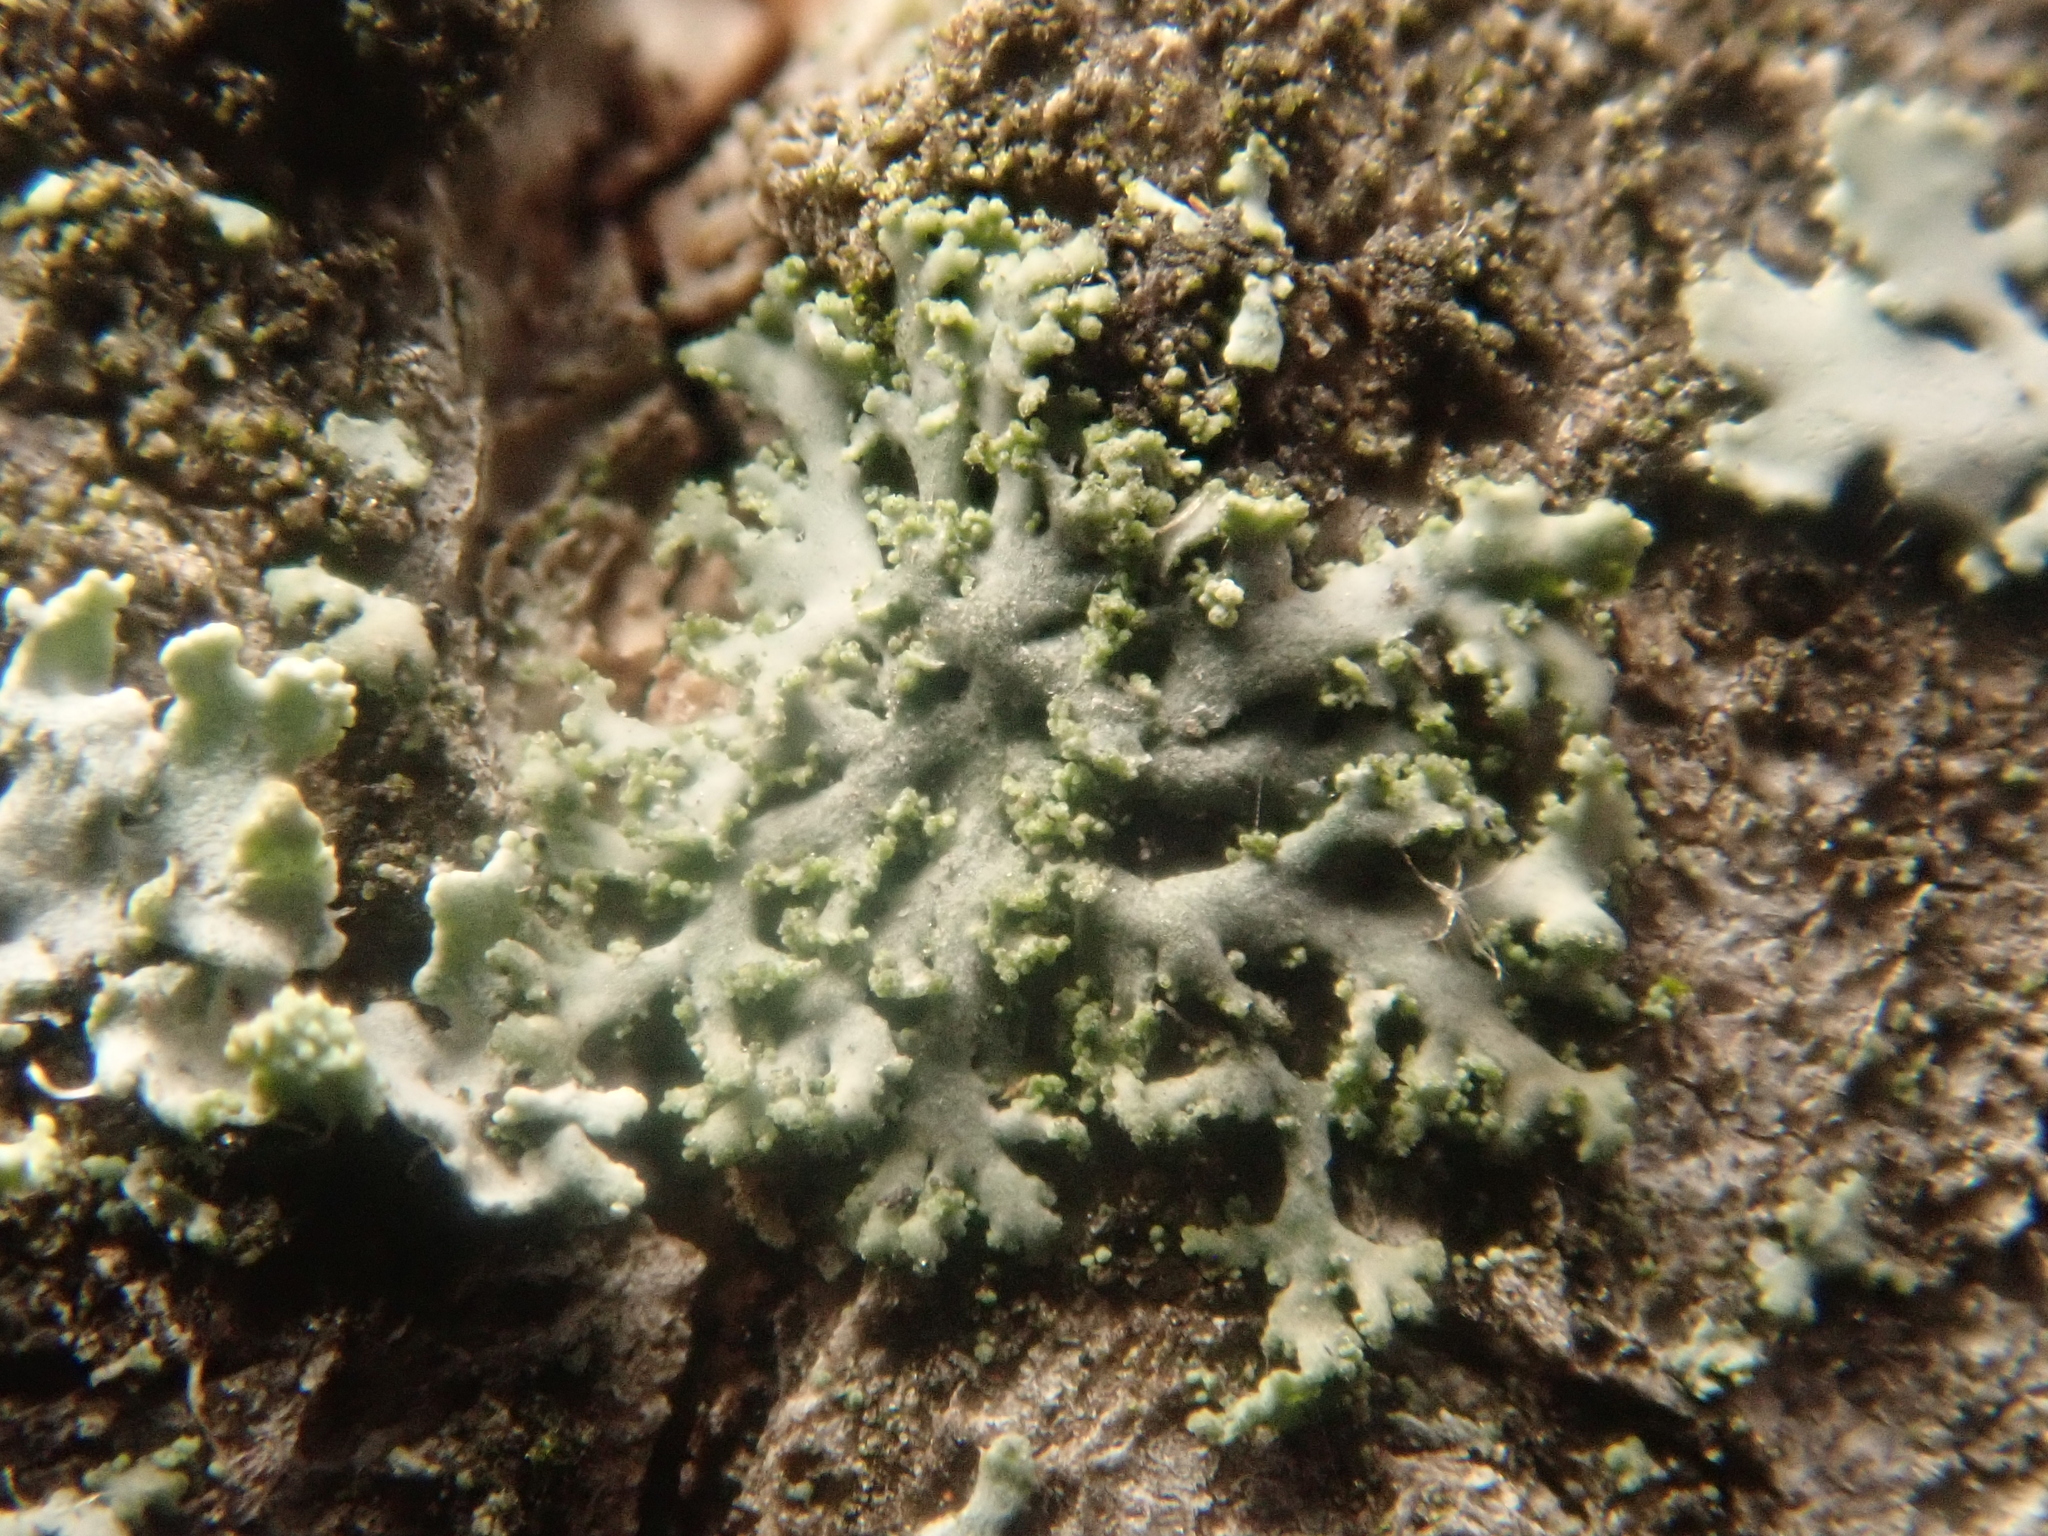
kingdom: Fungi
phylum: Ascomycota
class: Lecanoromycetes
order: Caliciales
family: Physciaceae
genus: Physciella
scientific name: Physciella nigricans
